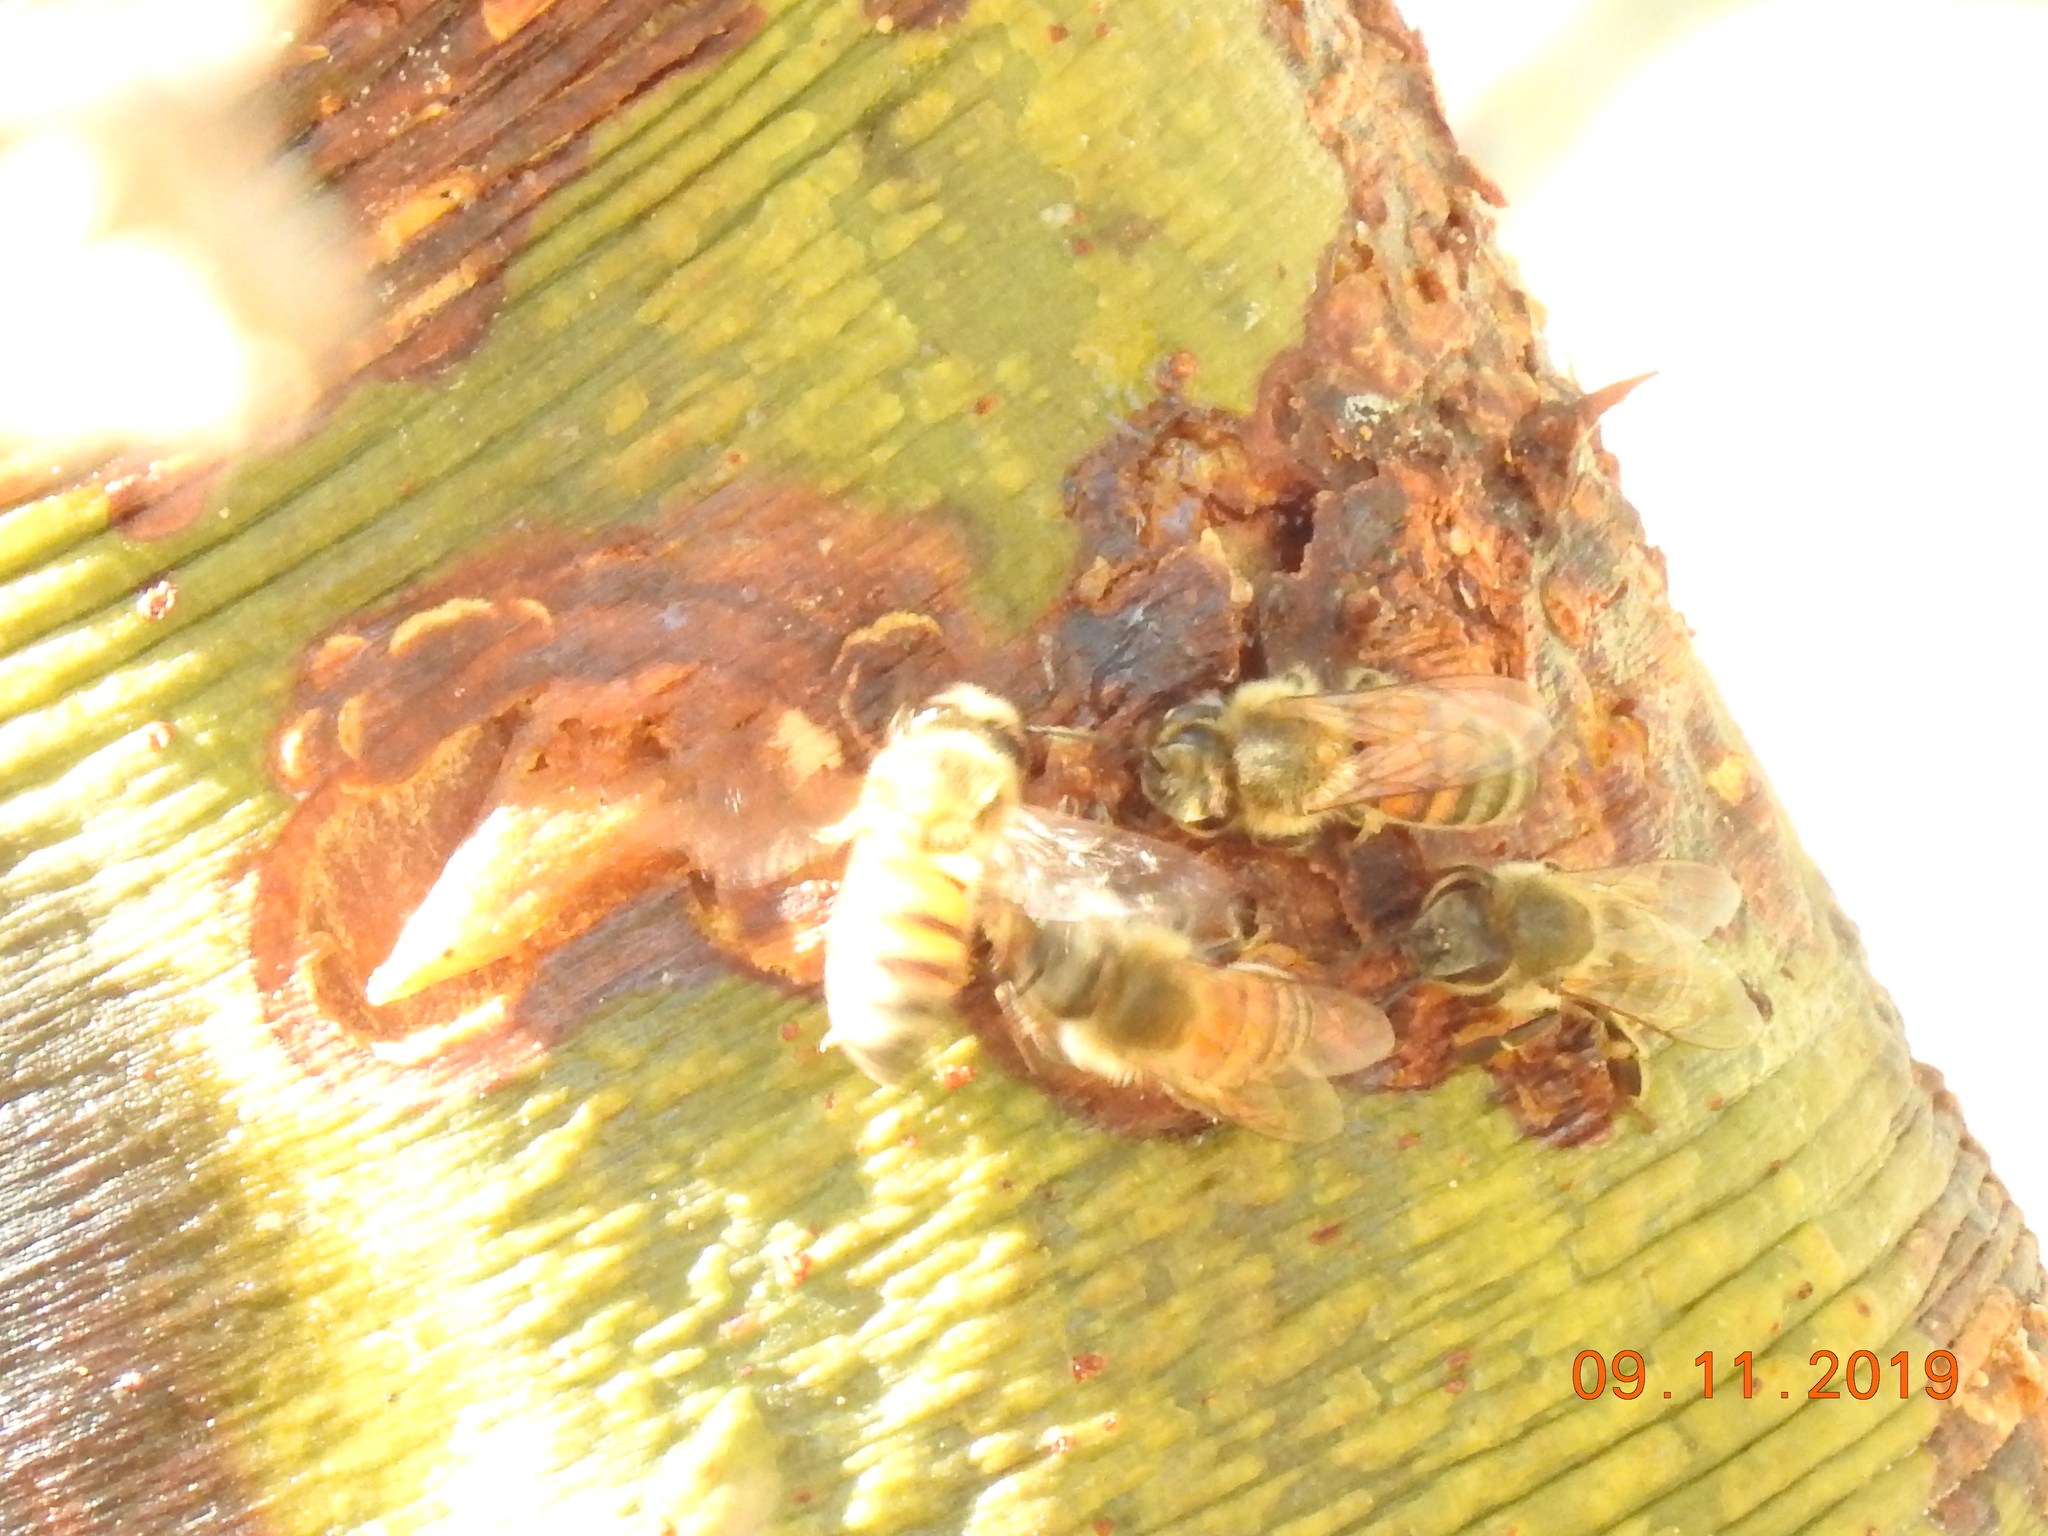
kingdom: Animalia
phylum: Arthropoda
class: Insecta
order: Hymenoptera
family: Apidae
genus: Apis
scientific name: Apis mellifera
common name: Honey bee
